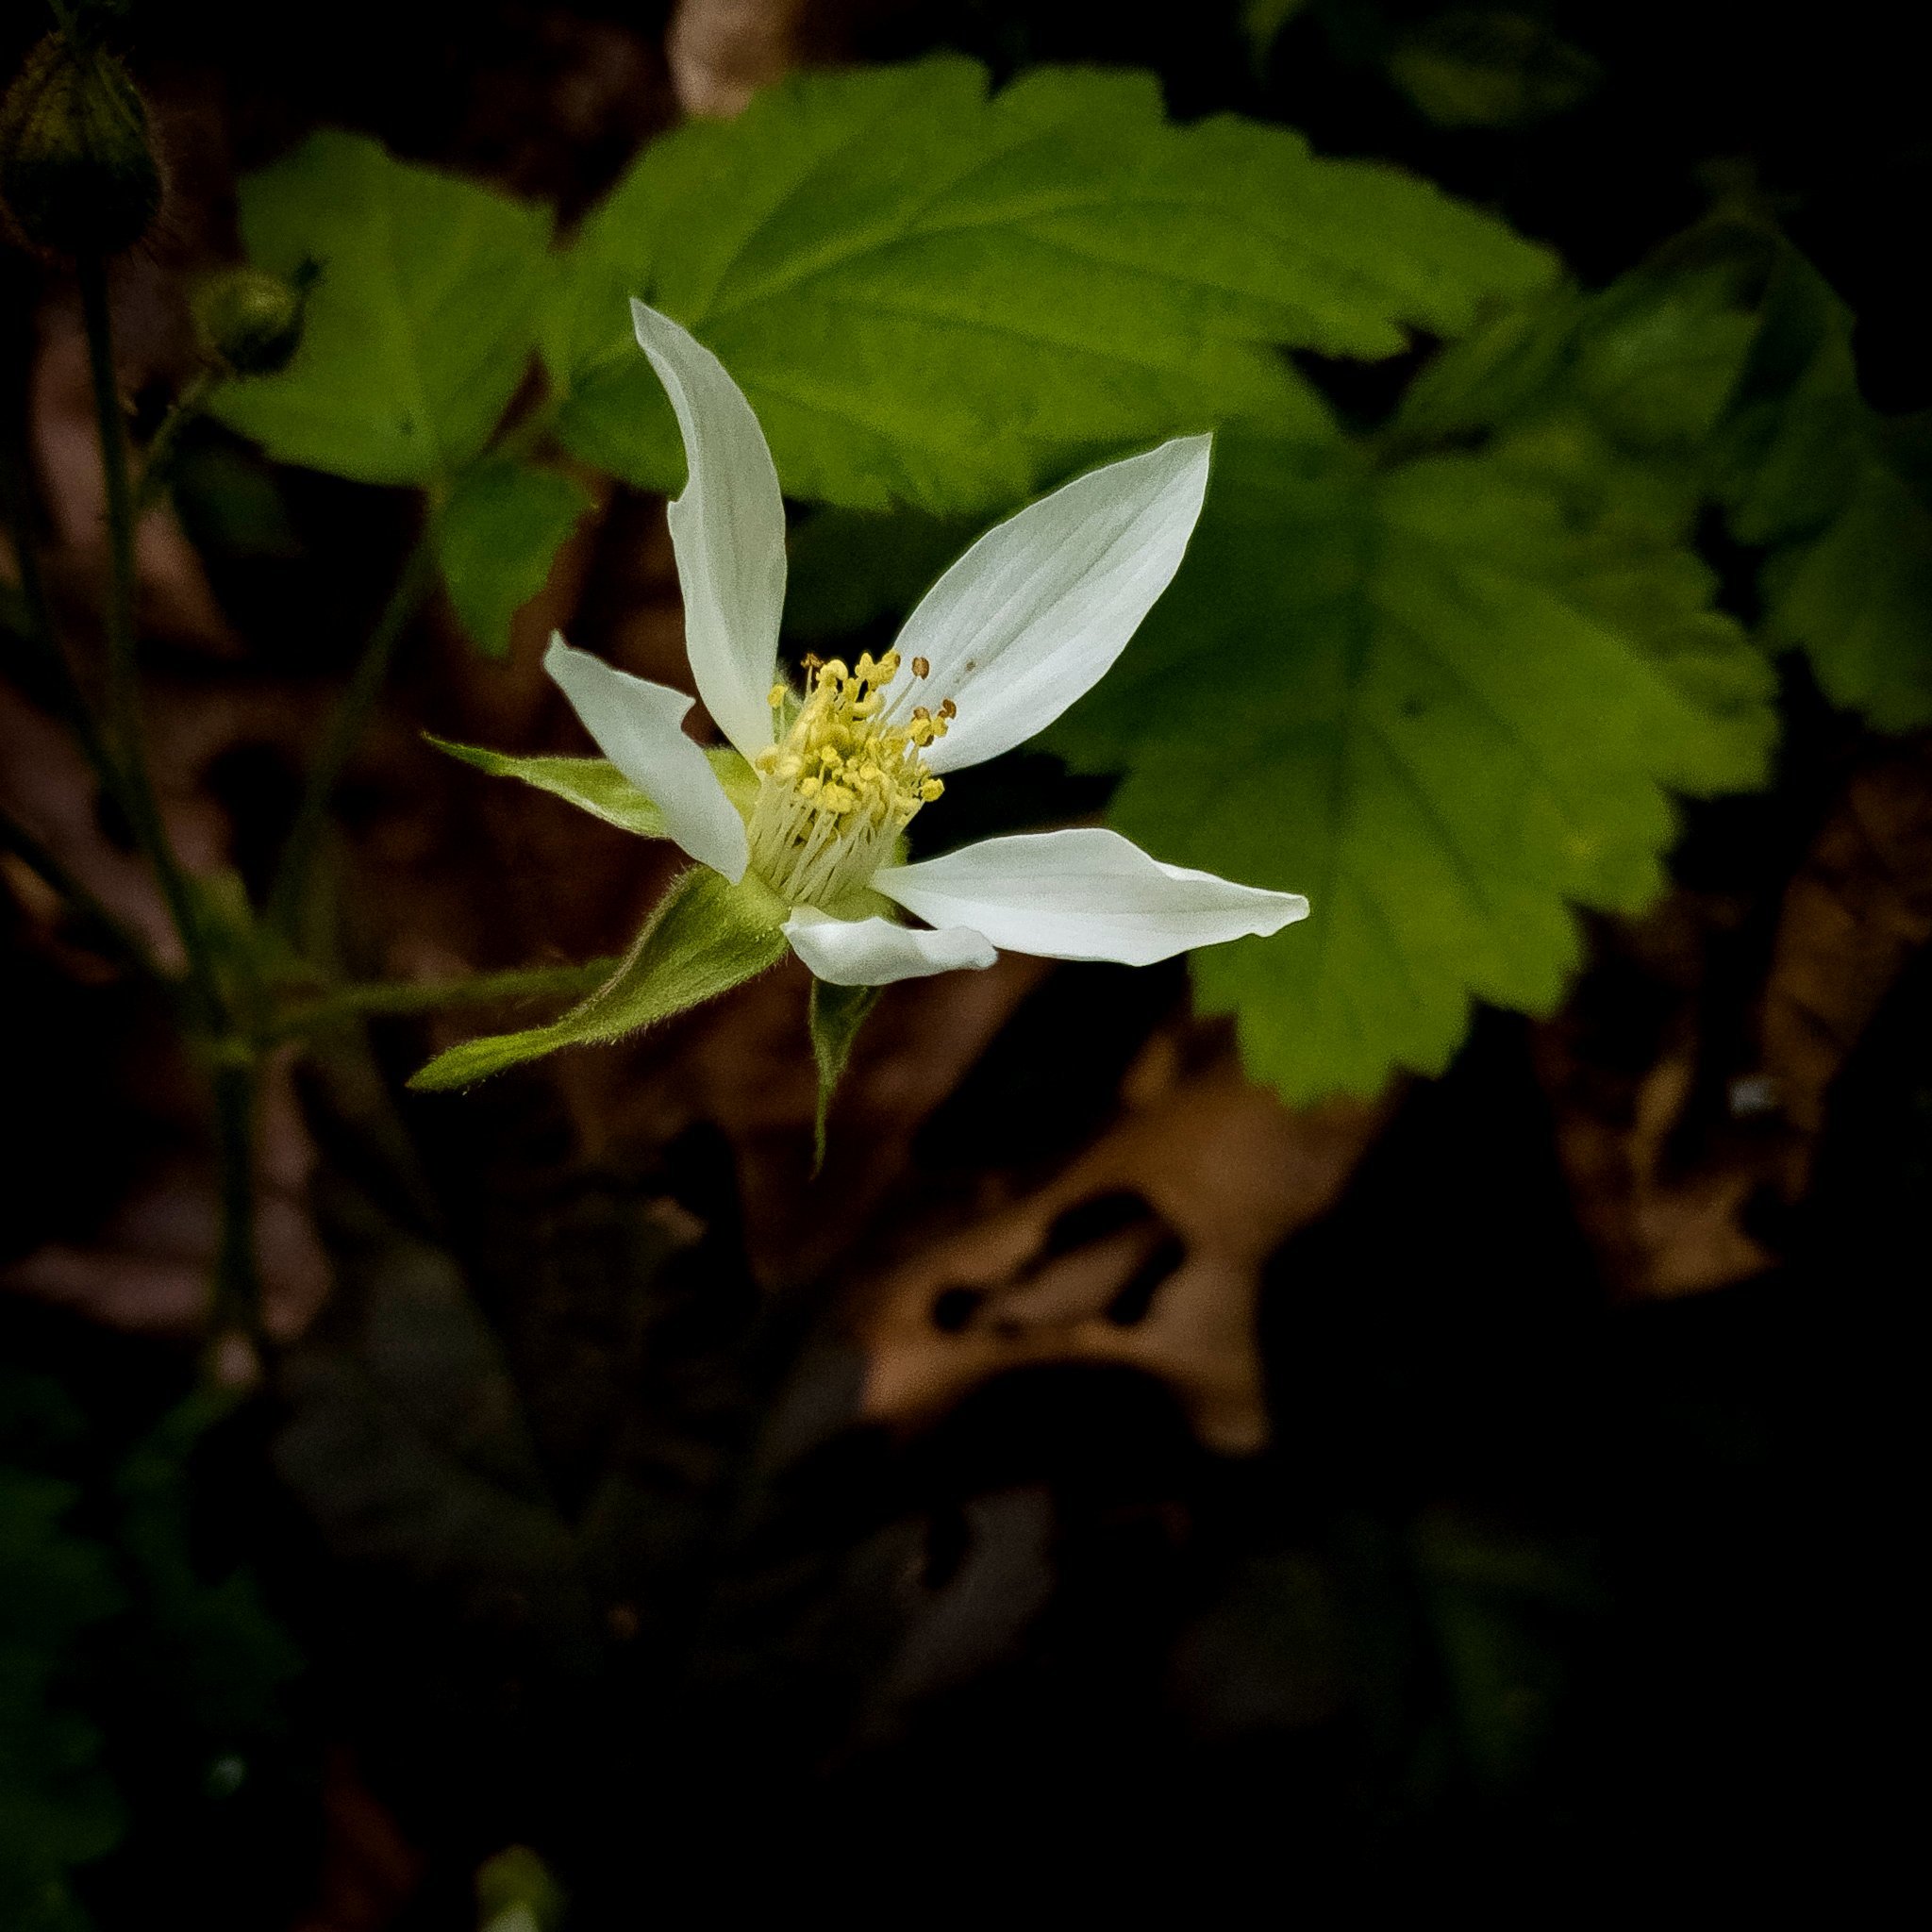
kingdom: Plantae
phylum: Tracheophyta
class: Magnoliopsida
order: Rosales
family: Rosaceae
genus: Rubus
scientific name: Rubus ursinus
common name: Pacific blackberry
